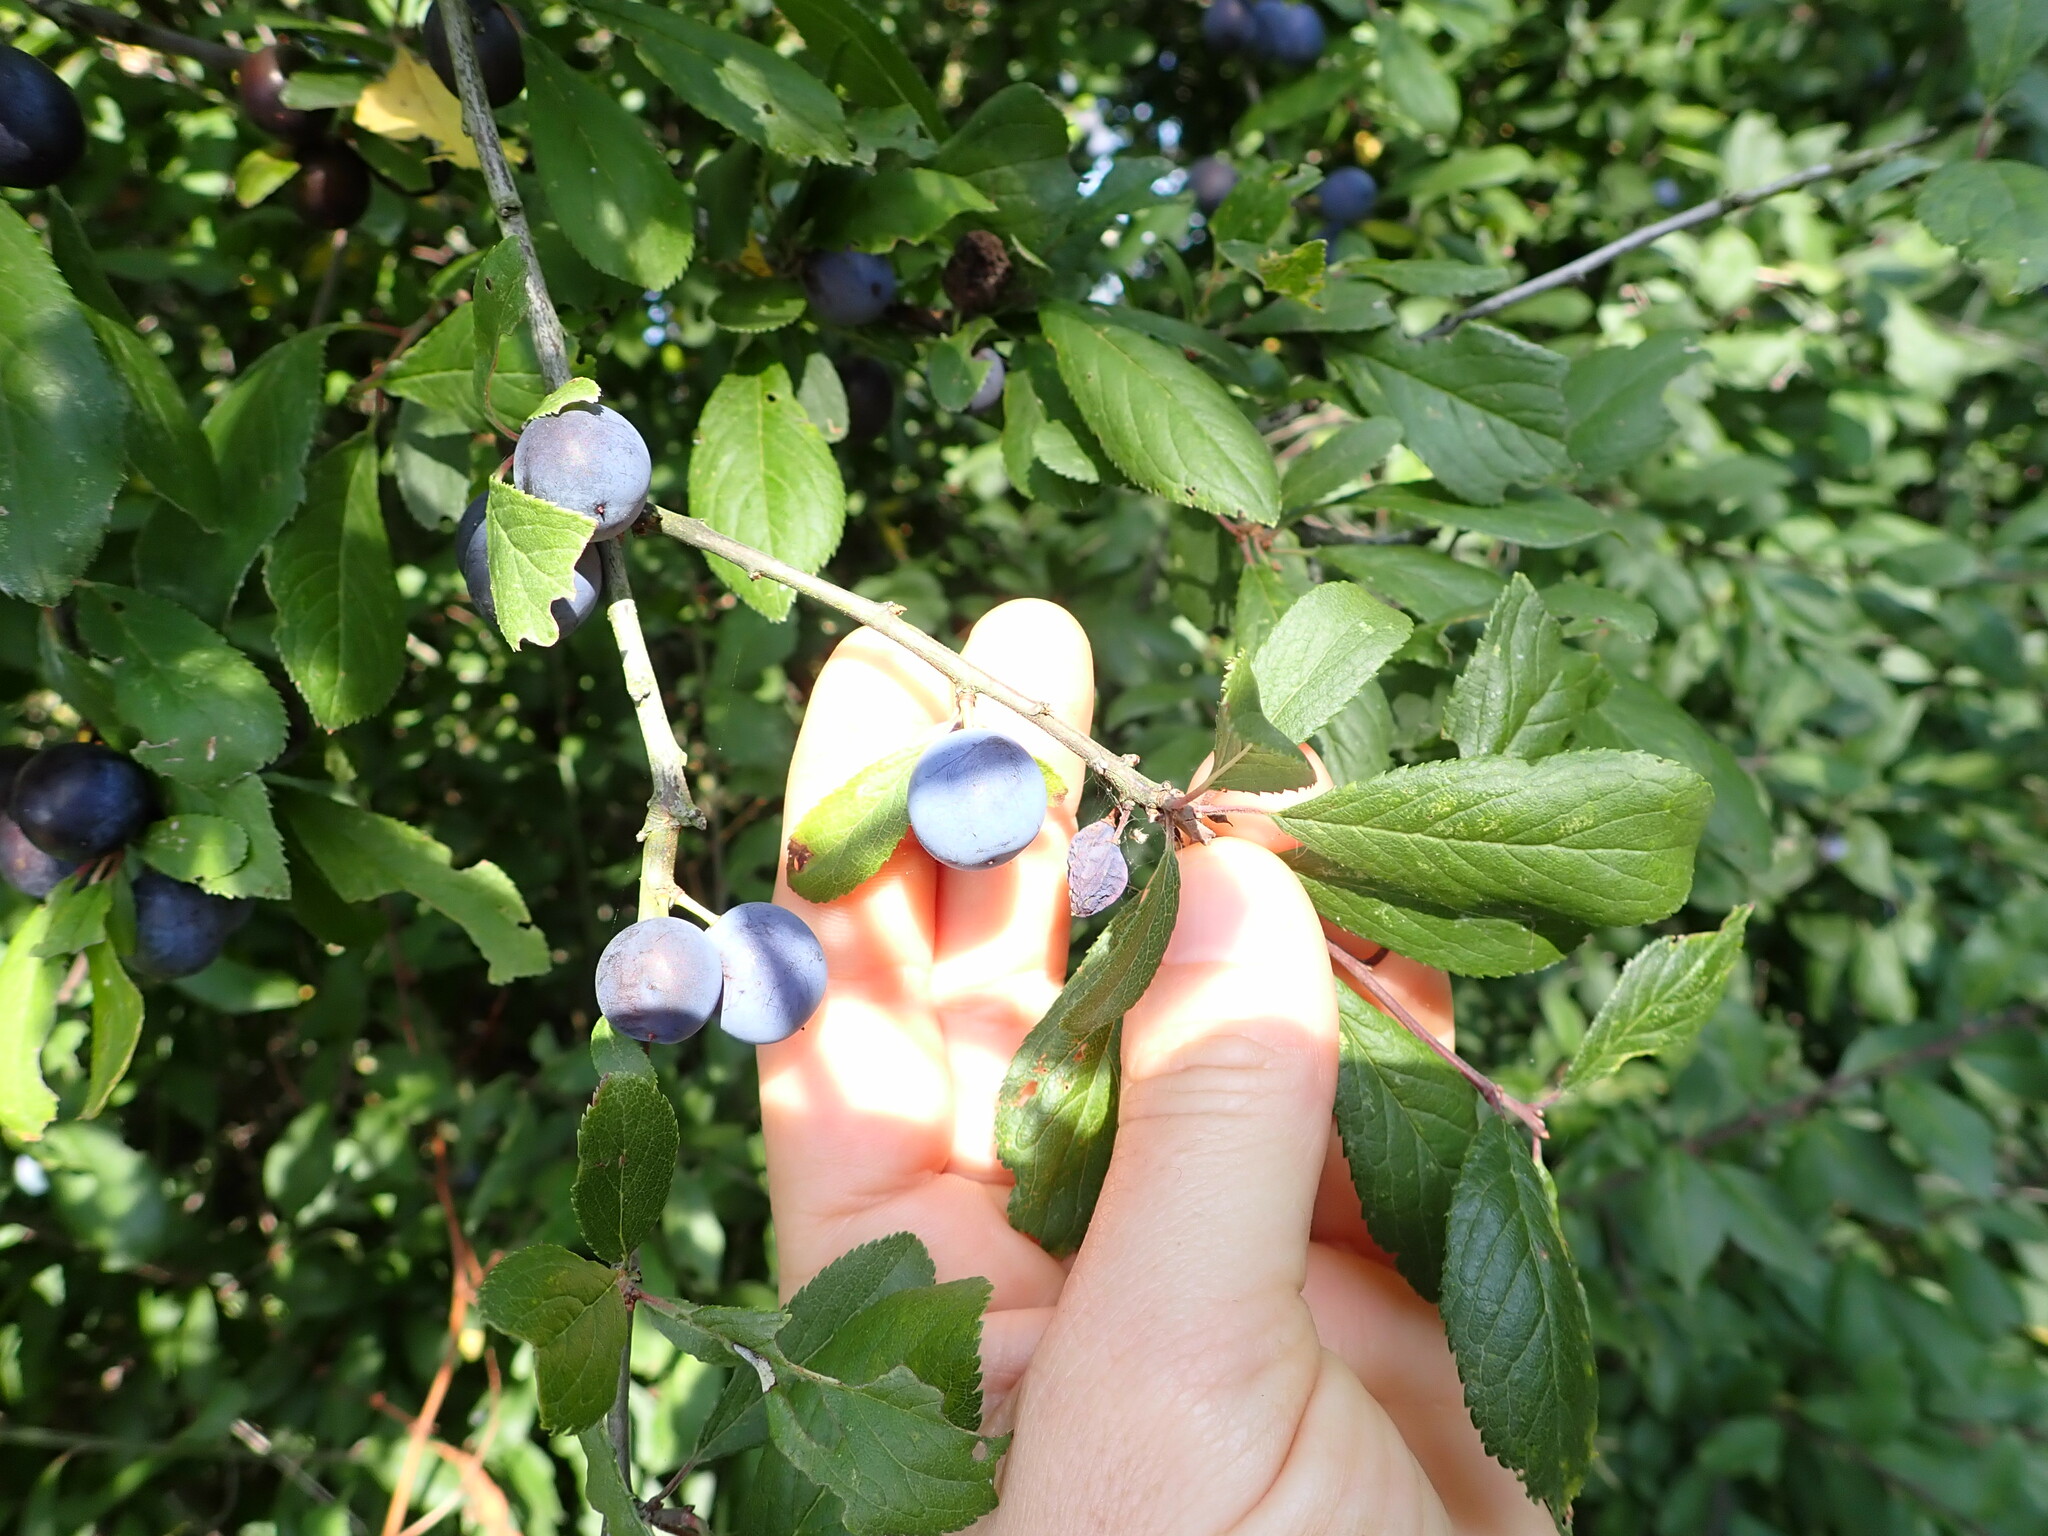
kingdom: Plantae
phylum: Tracheophyta
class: Magnoliopsida
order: Rosales
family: Rosaceae
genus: Prunus
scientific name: Prunus spinosa
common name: Blackthorn
